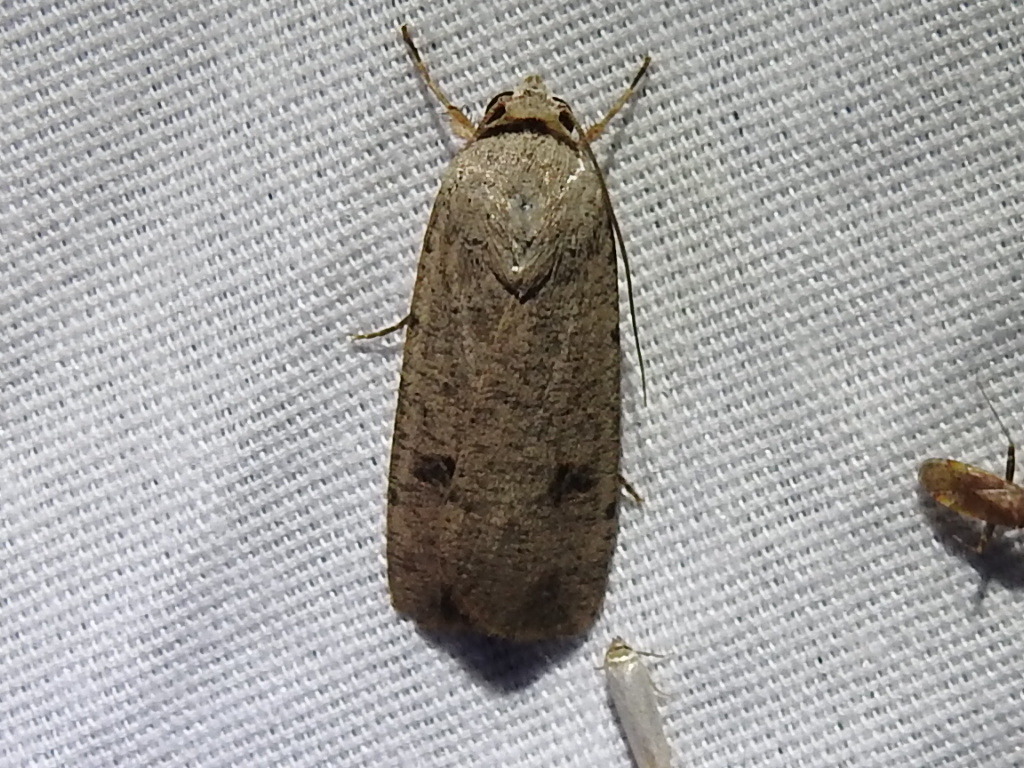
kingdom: Animalia
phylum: Arthropoda
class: Insecta
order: Lepidoptera
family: Noctuidae
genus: Anicla
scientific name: Anicla infecta
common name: Green cutworm
